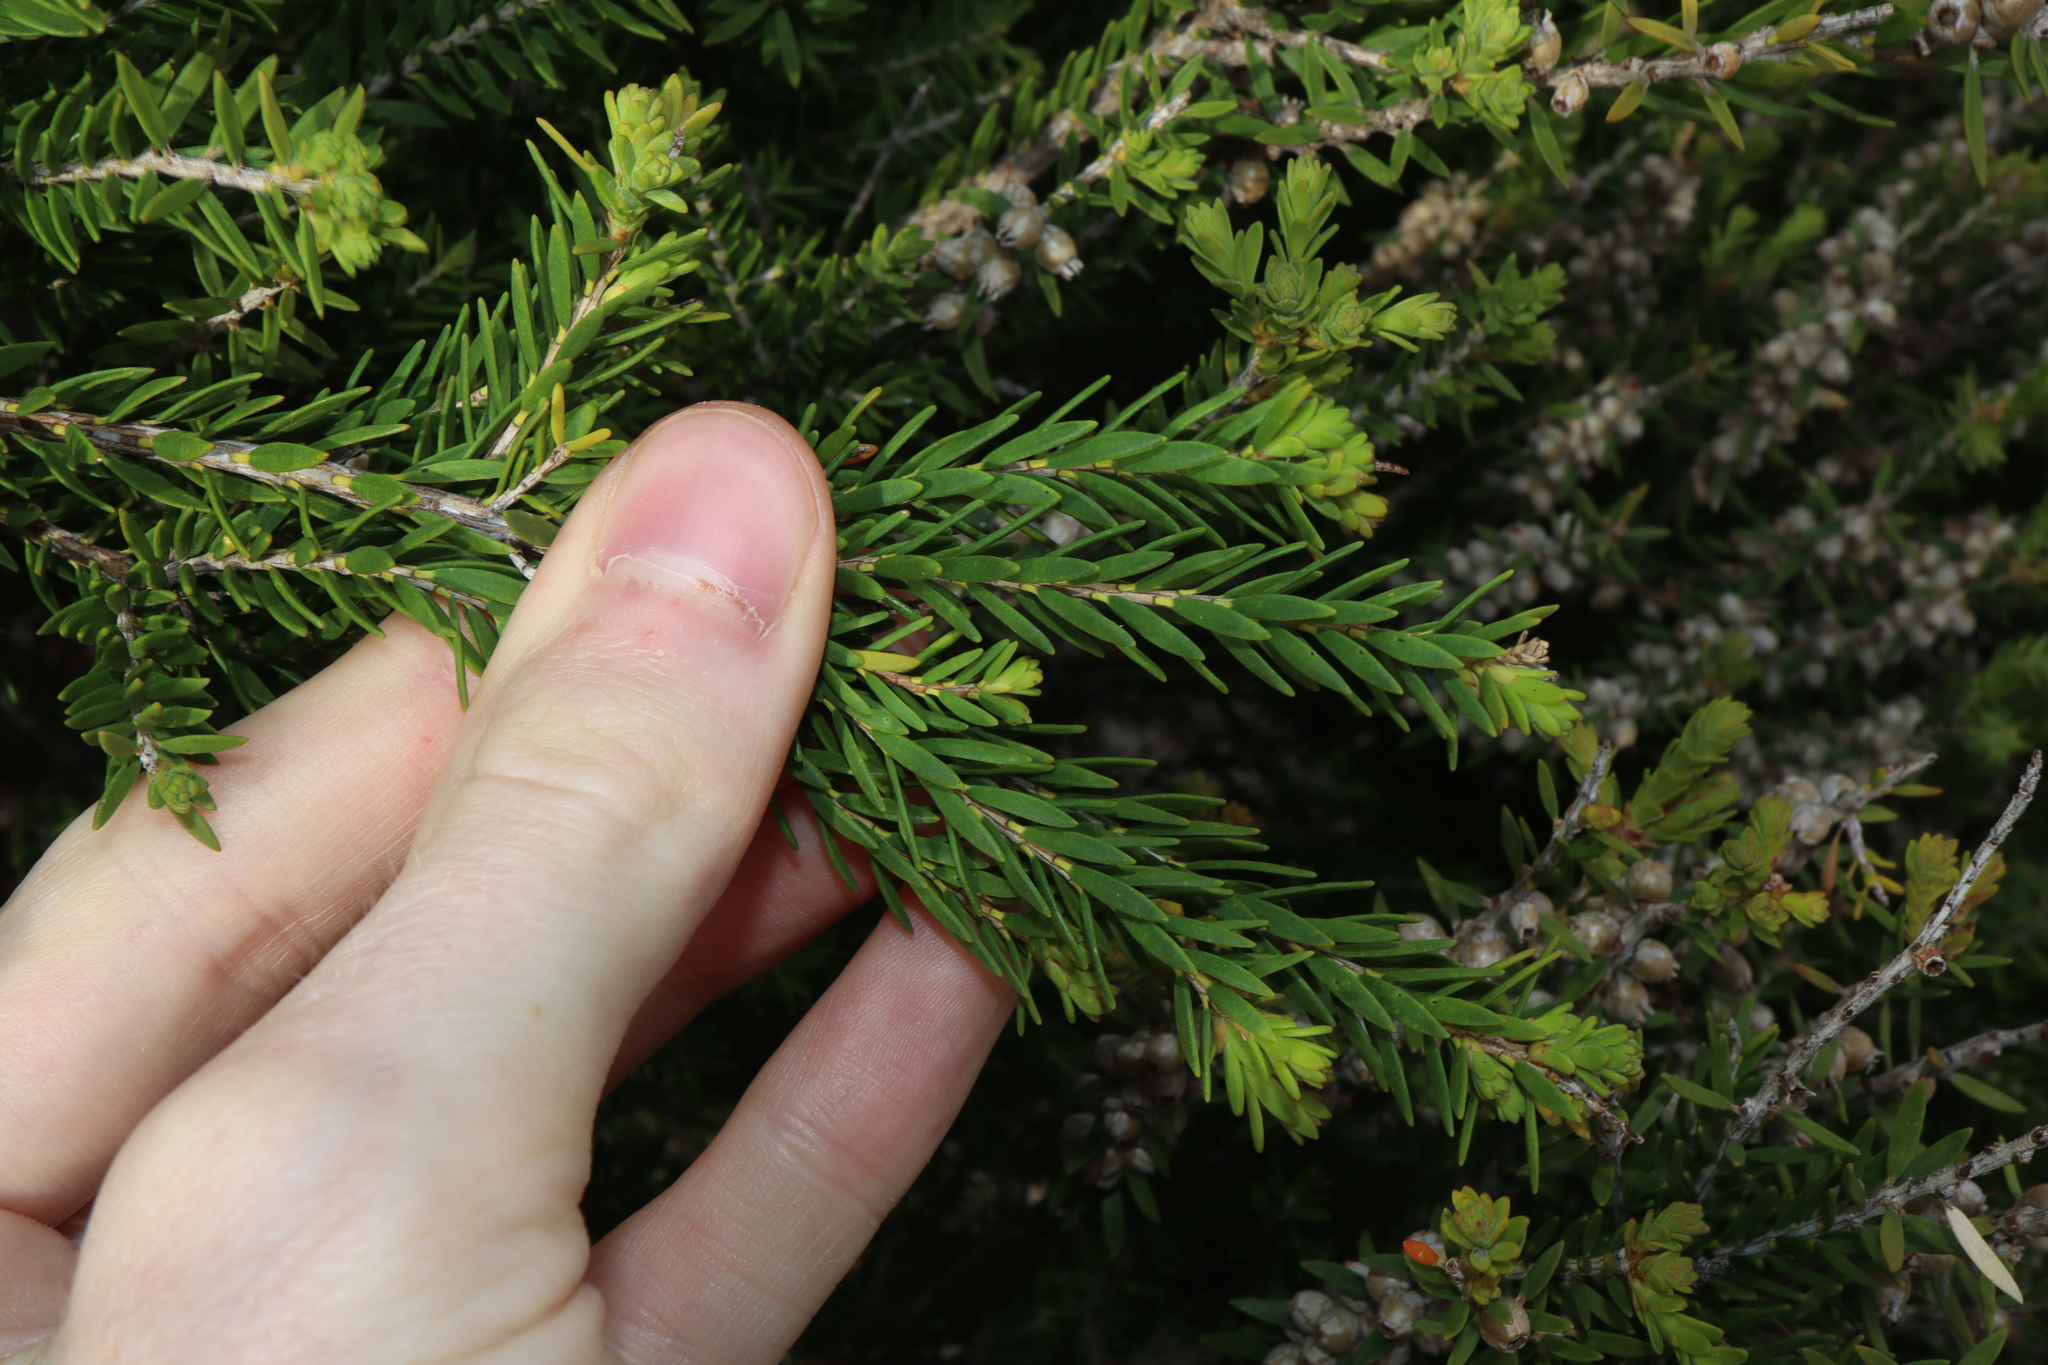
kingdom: Plantae
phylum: Tracheophyta
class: Magnoliopsida
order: Myrtales
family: Myrtaceae
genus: Melaleuca
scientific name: Melaleuca lanceolata
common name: Rottnest island teatree
